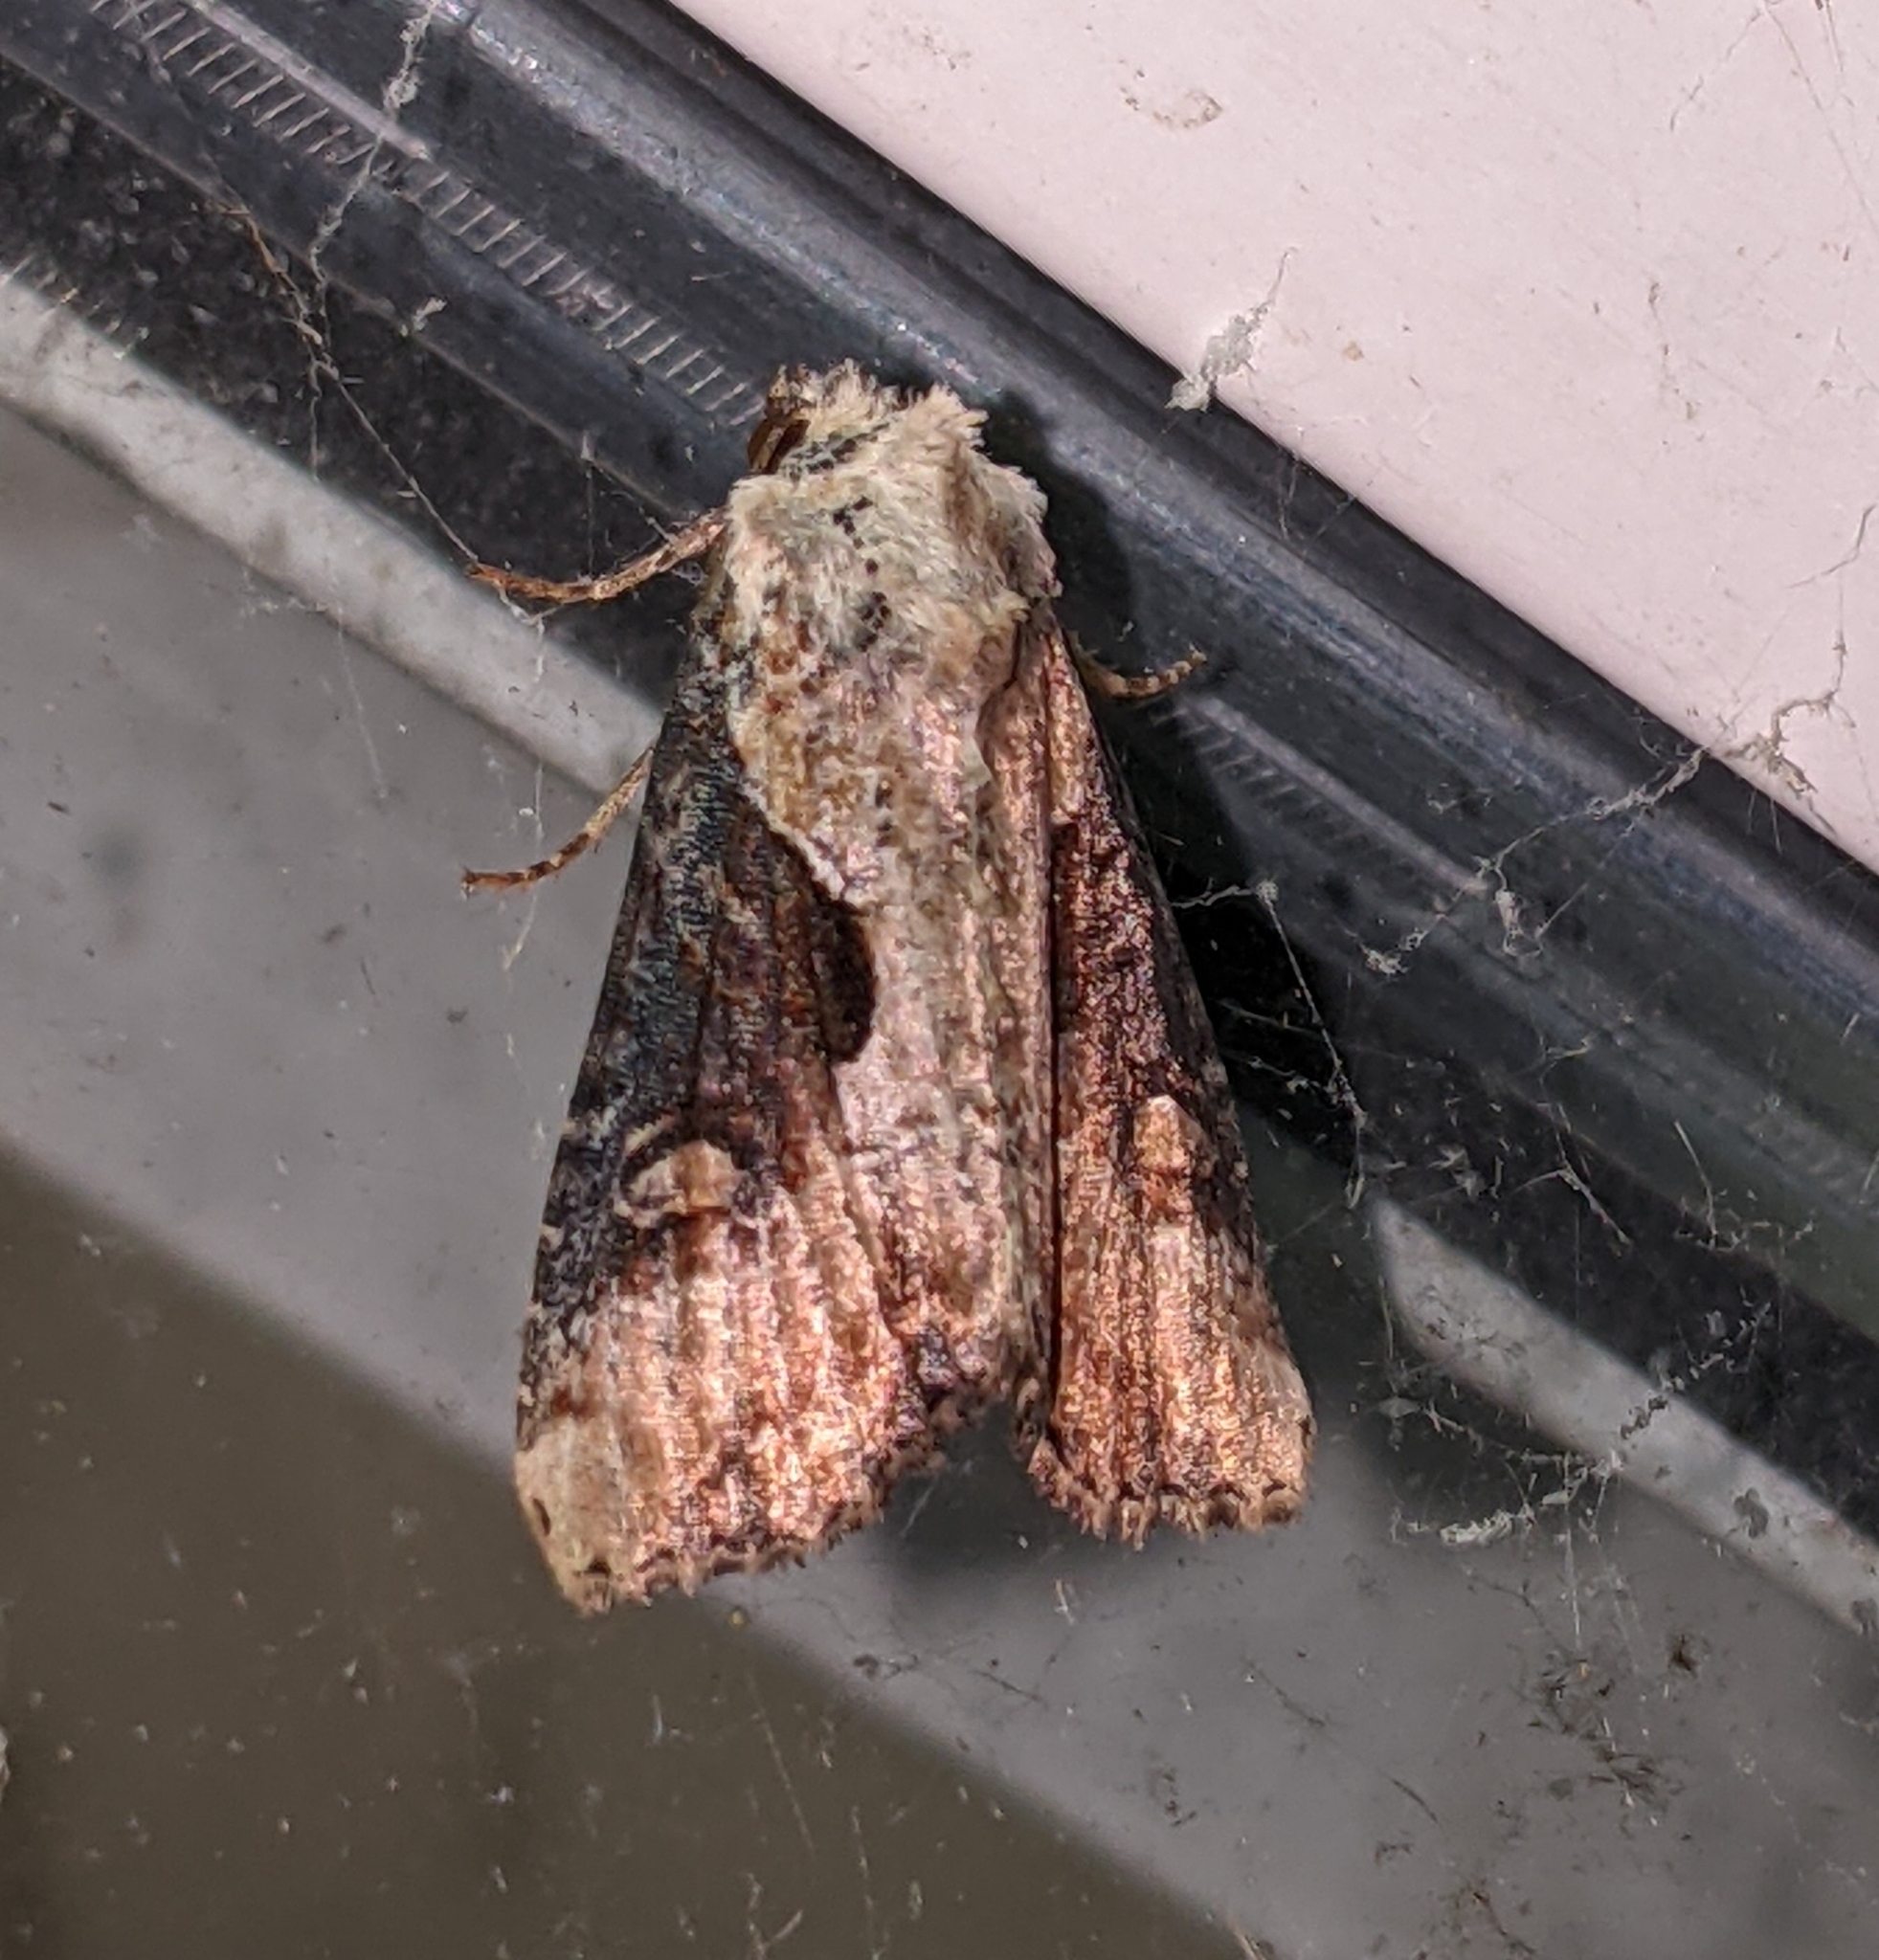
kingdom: Animalia
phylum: Arthropoda
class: Insecta
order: Lepidoptera
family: Noctuidae
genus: Lateroligia
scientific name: Lateroligia ophiogramma
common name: Double lobed
